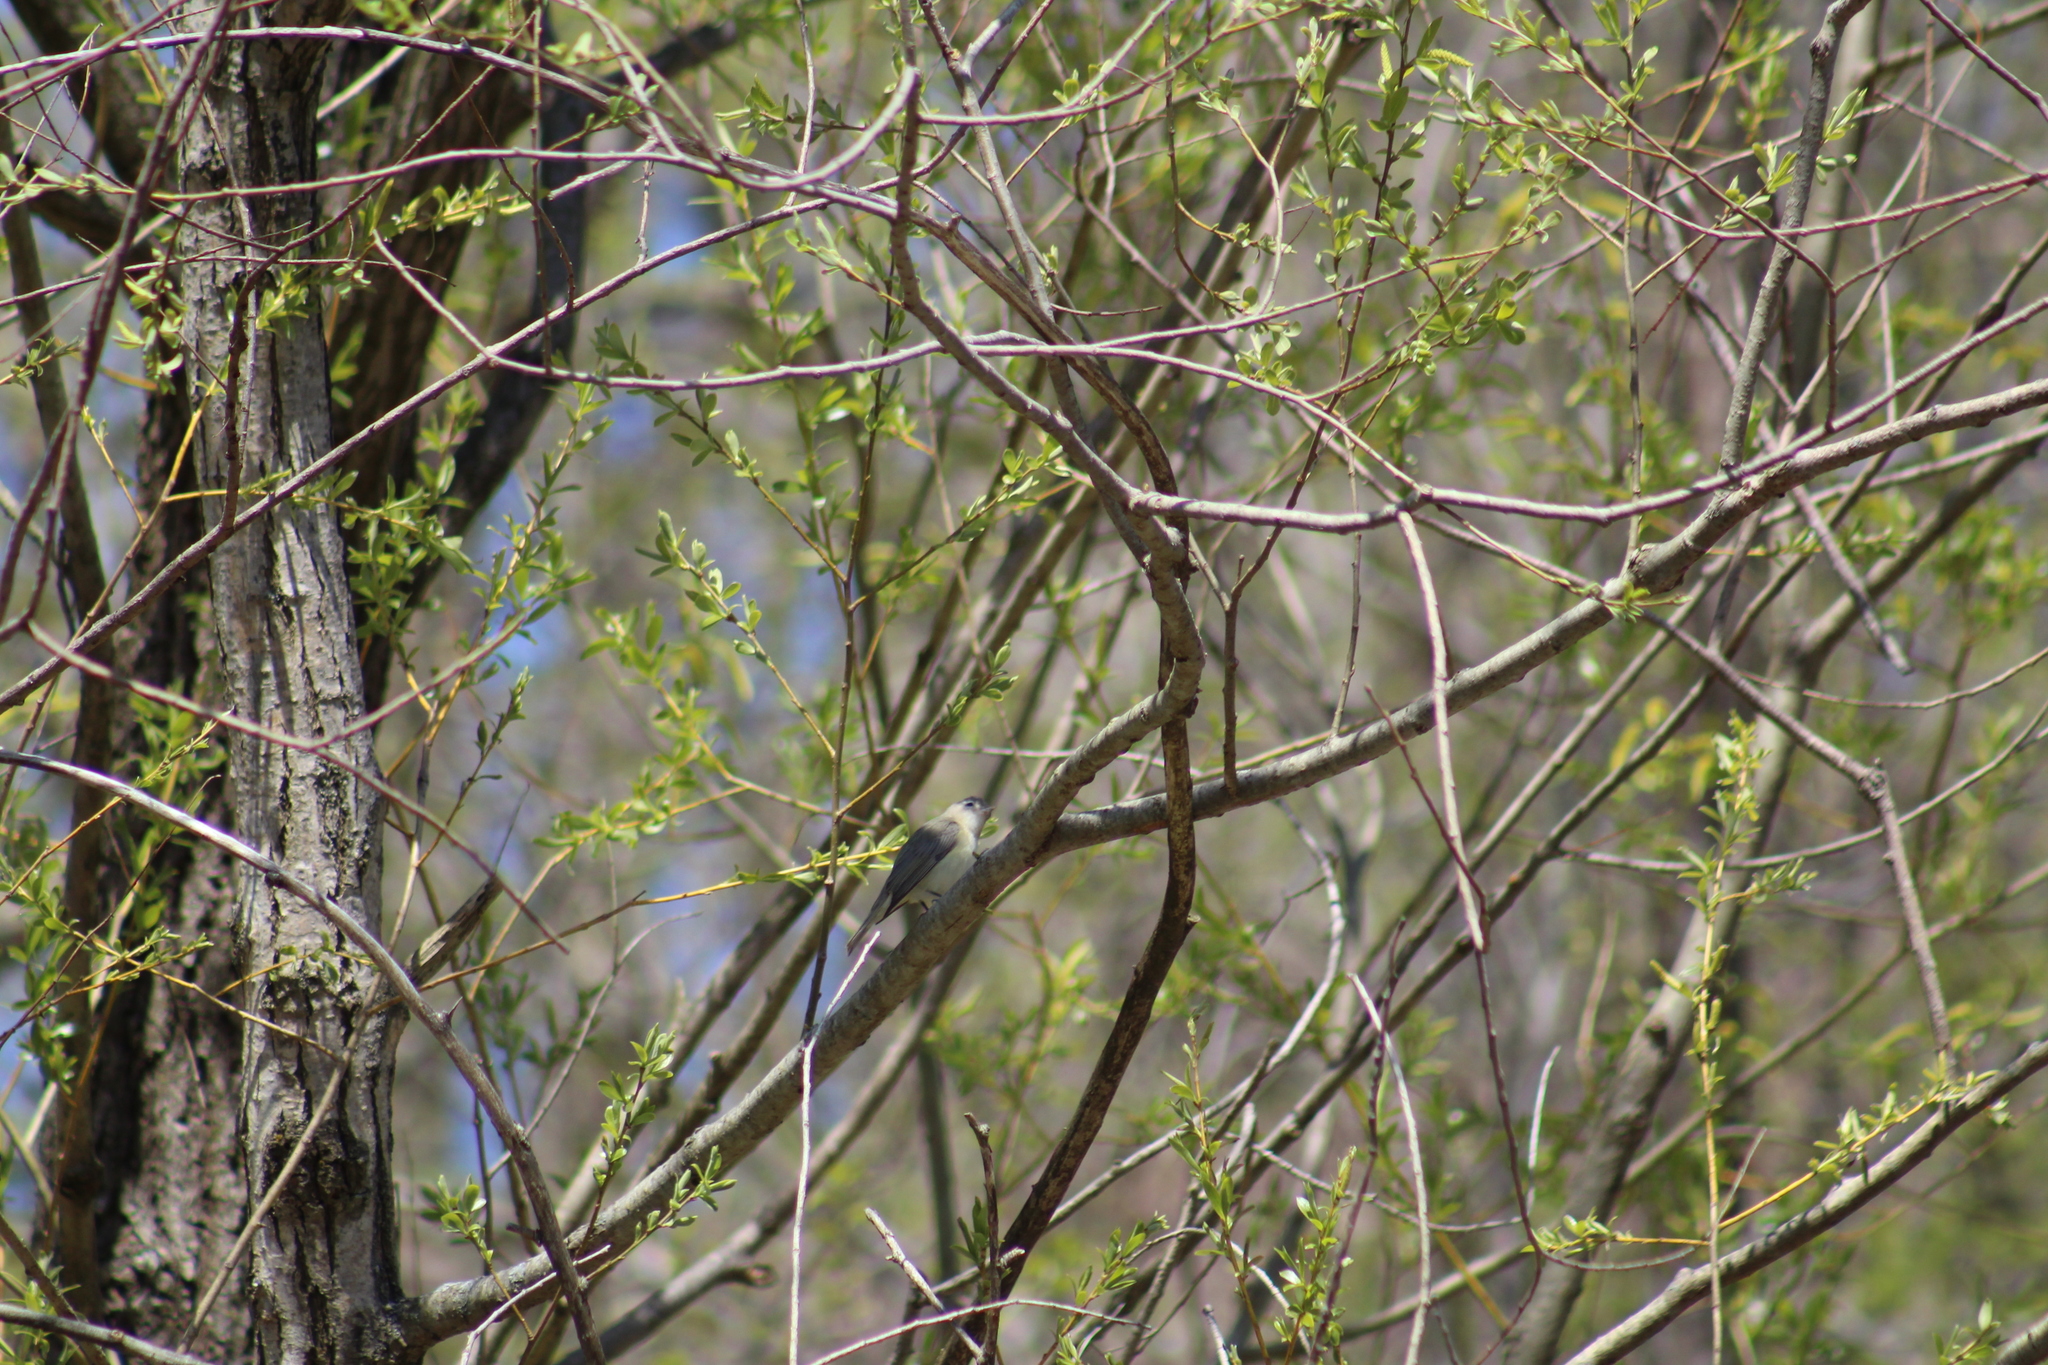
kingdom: Animalia
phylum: Chordata
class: Aves
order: Passeriformes
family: Vireonidae
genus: Vireo
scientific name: Vireo gilvus
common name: Warbling vireo
